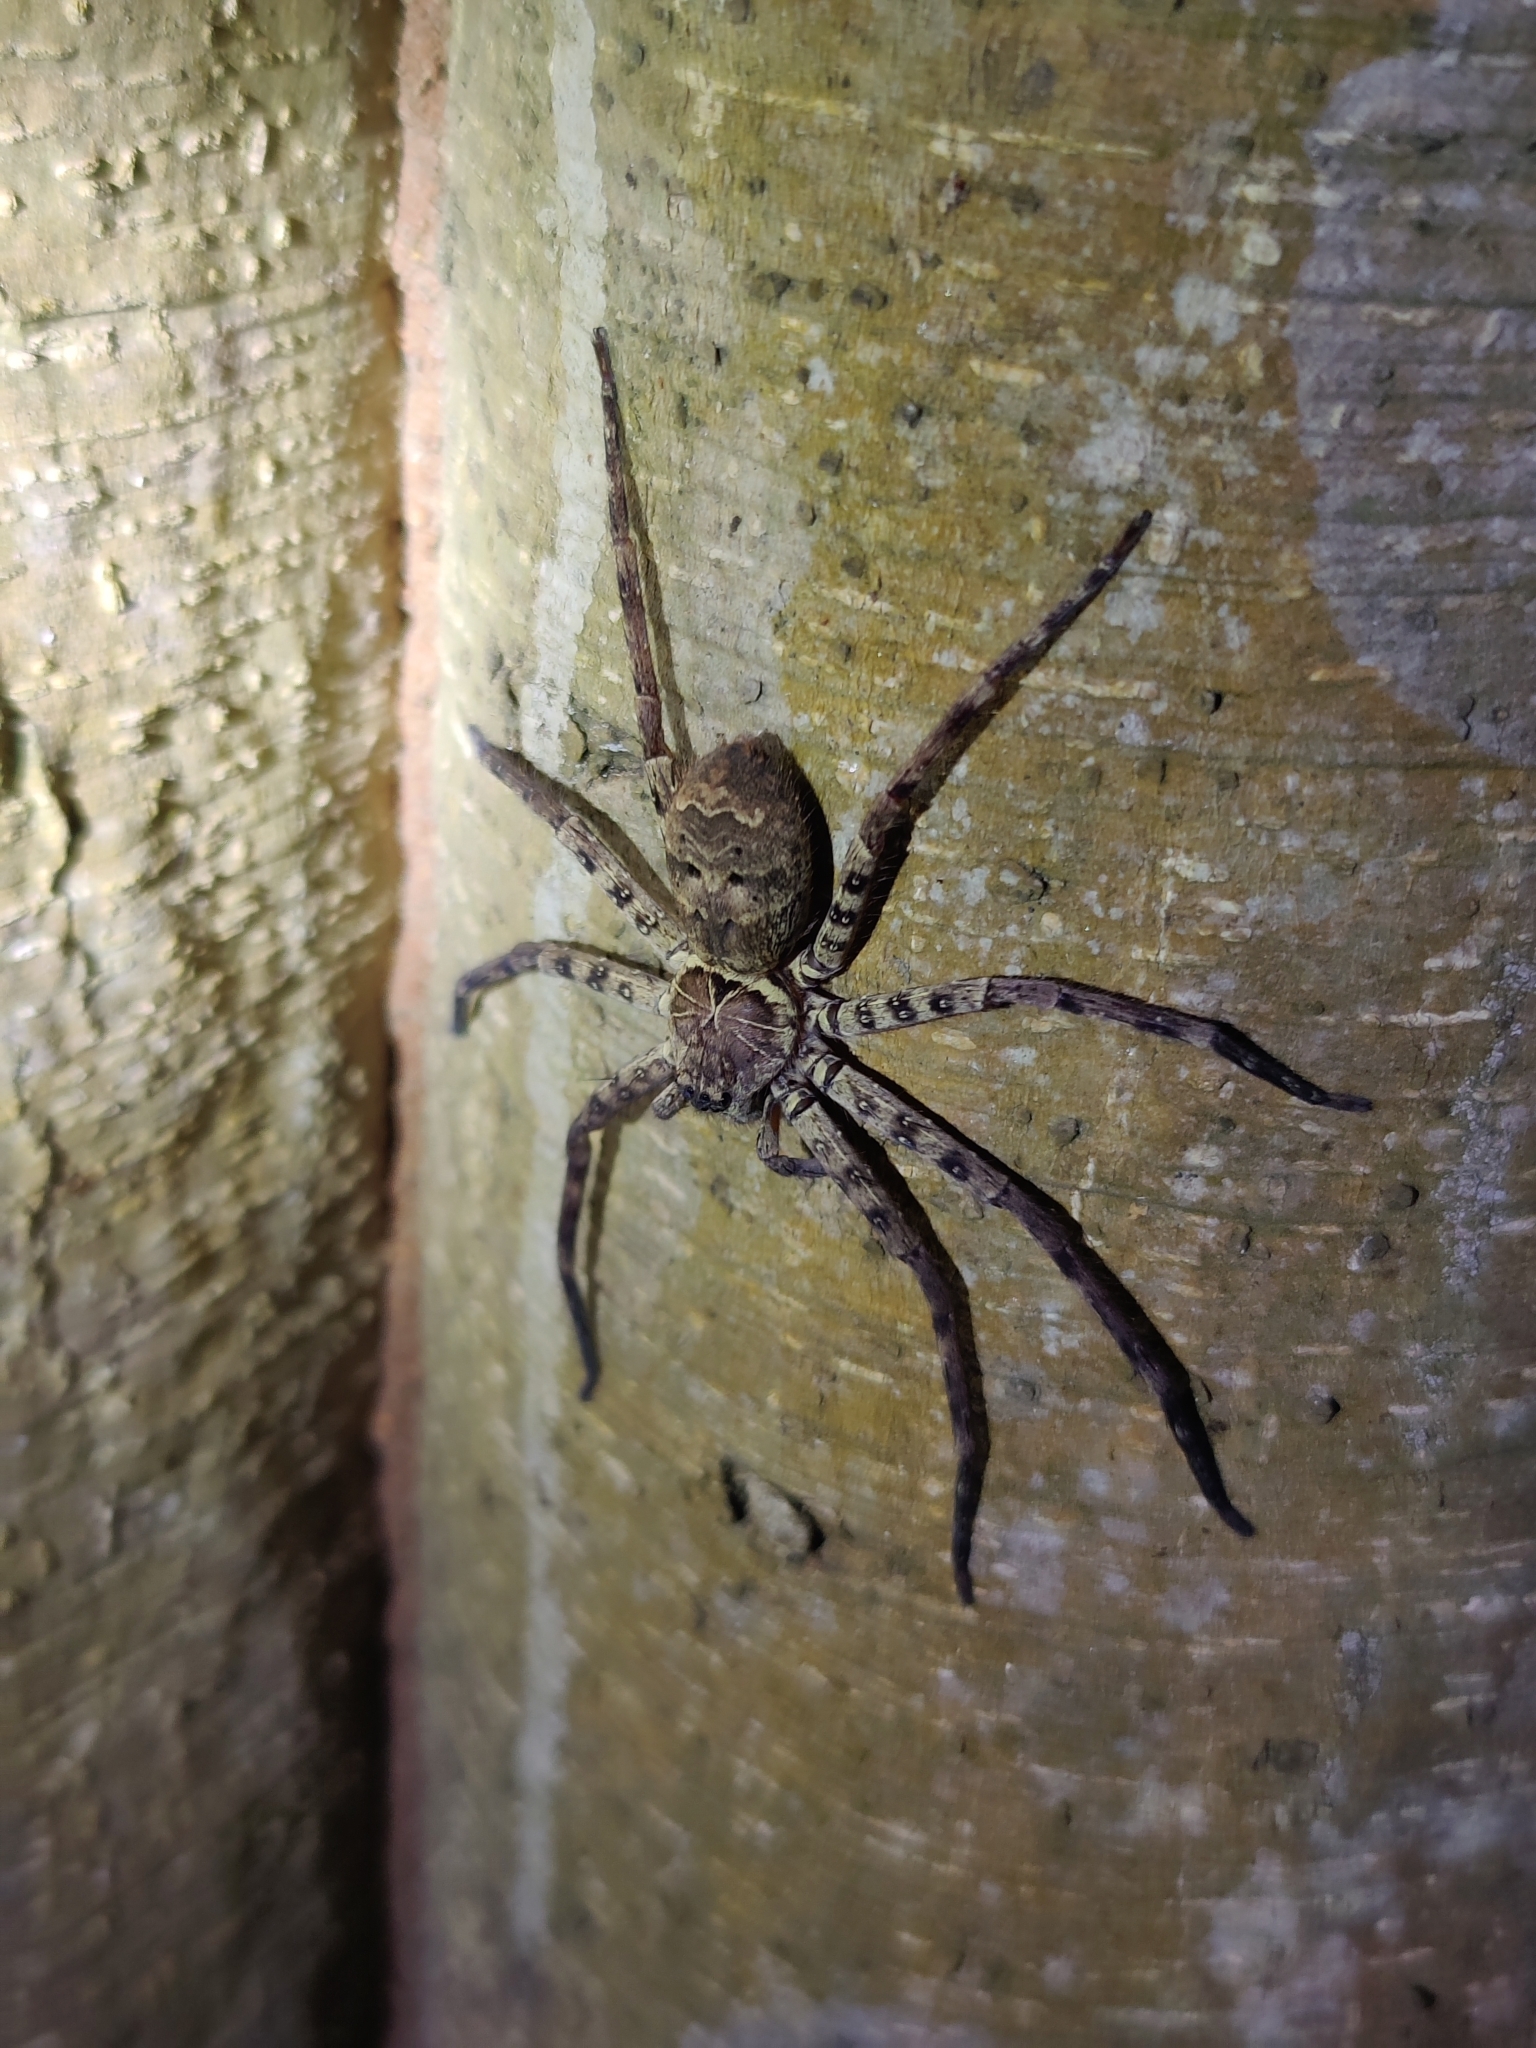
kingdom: Animalia
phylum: Arthropoda
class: Arachnida
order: Araneae
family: Sparassidae
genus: Heteropoda
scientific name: Heteropoda venatoria
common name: Huntsman spider
